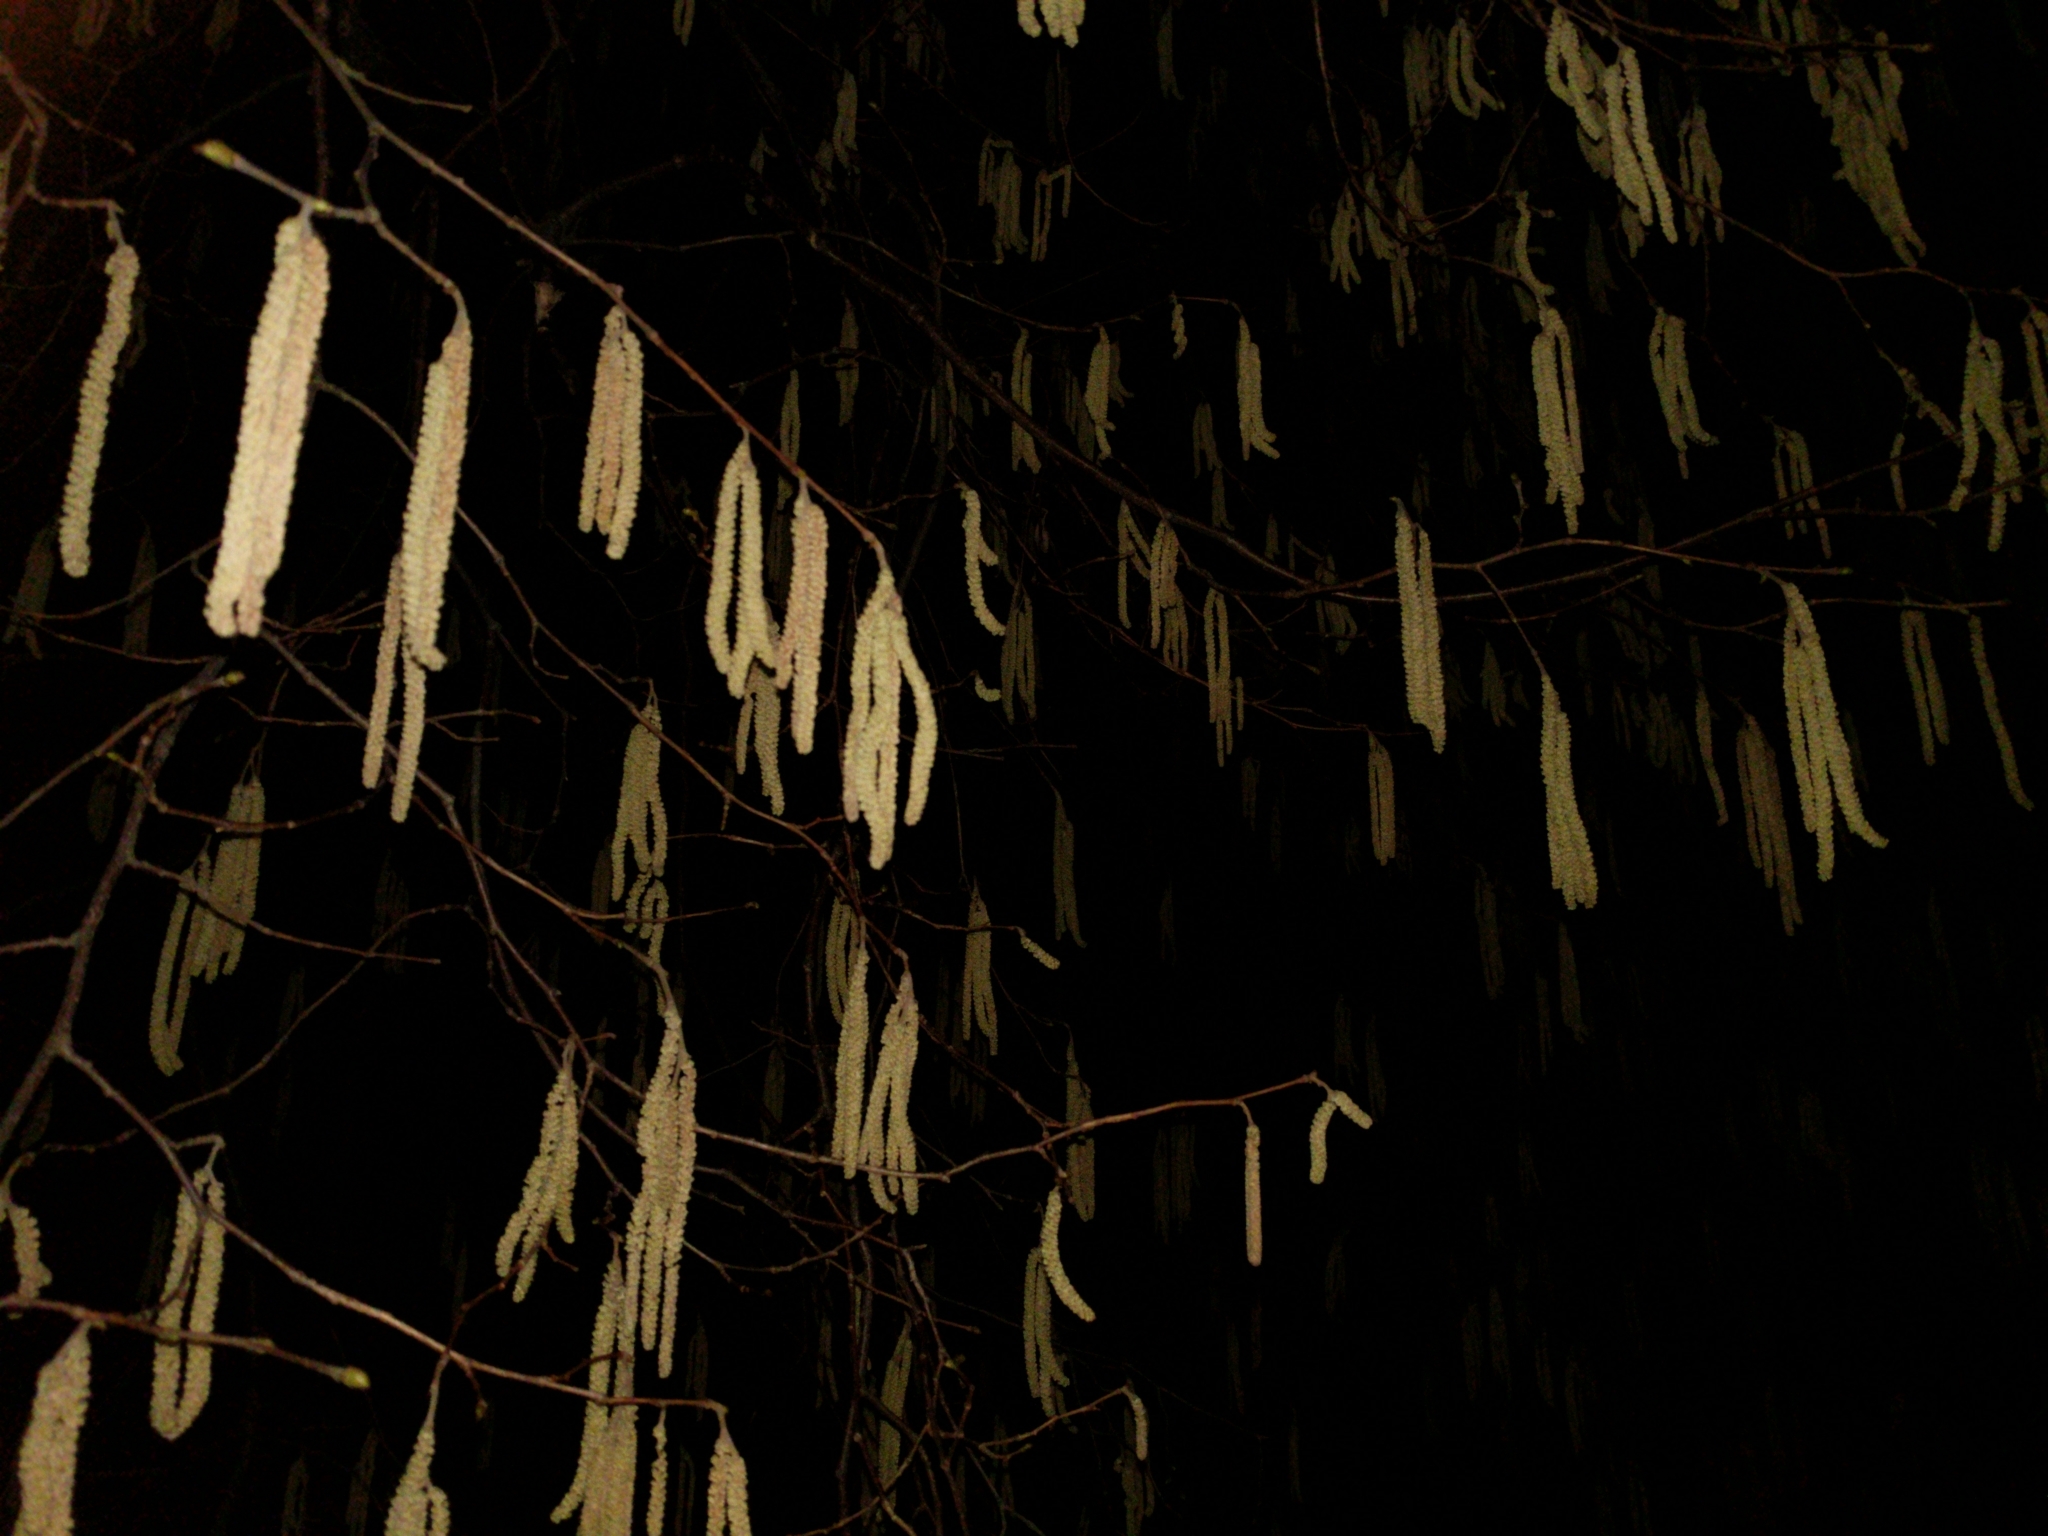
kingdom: Plantae
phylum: Tracheophyta
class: Magnoliopsida
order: Fagales
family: Betulaceae
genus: Corylus
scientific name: Corylus avellana
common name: European hazel
